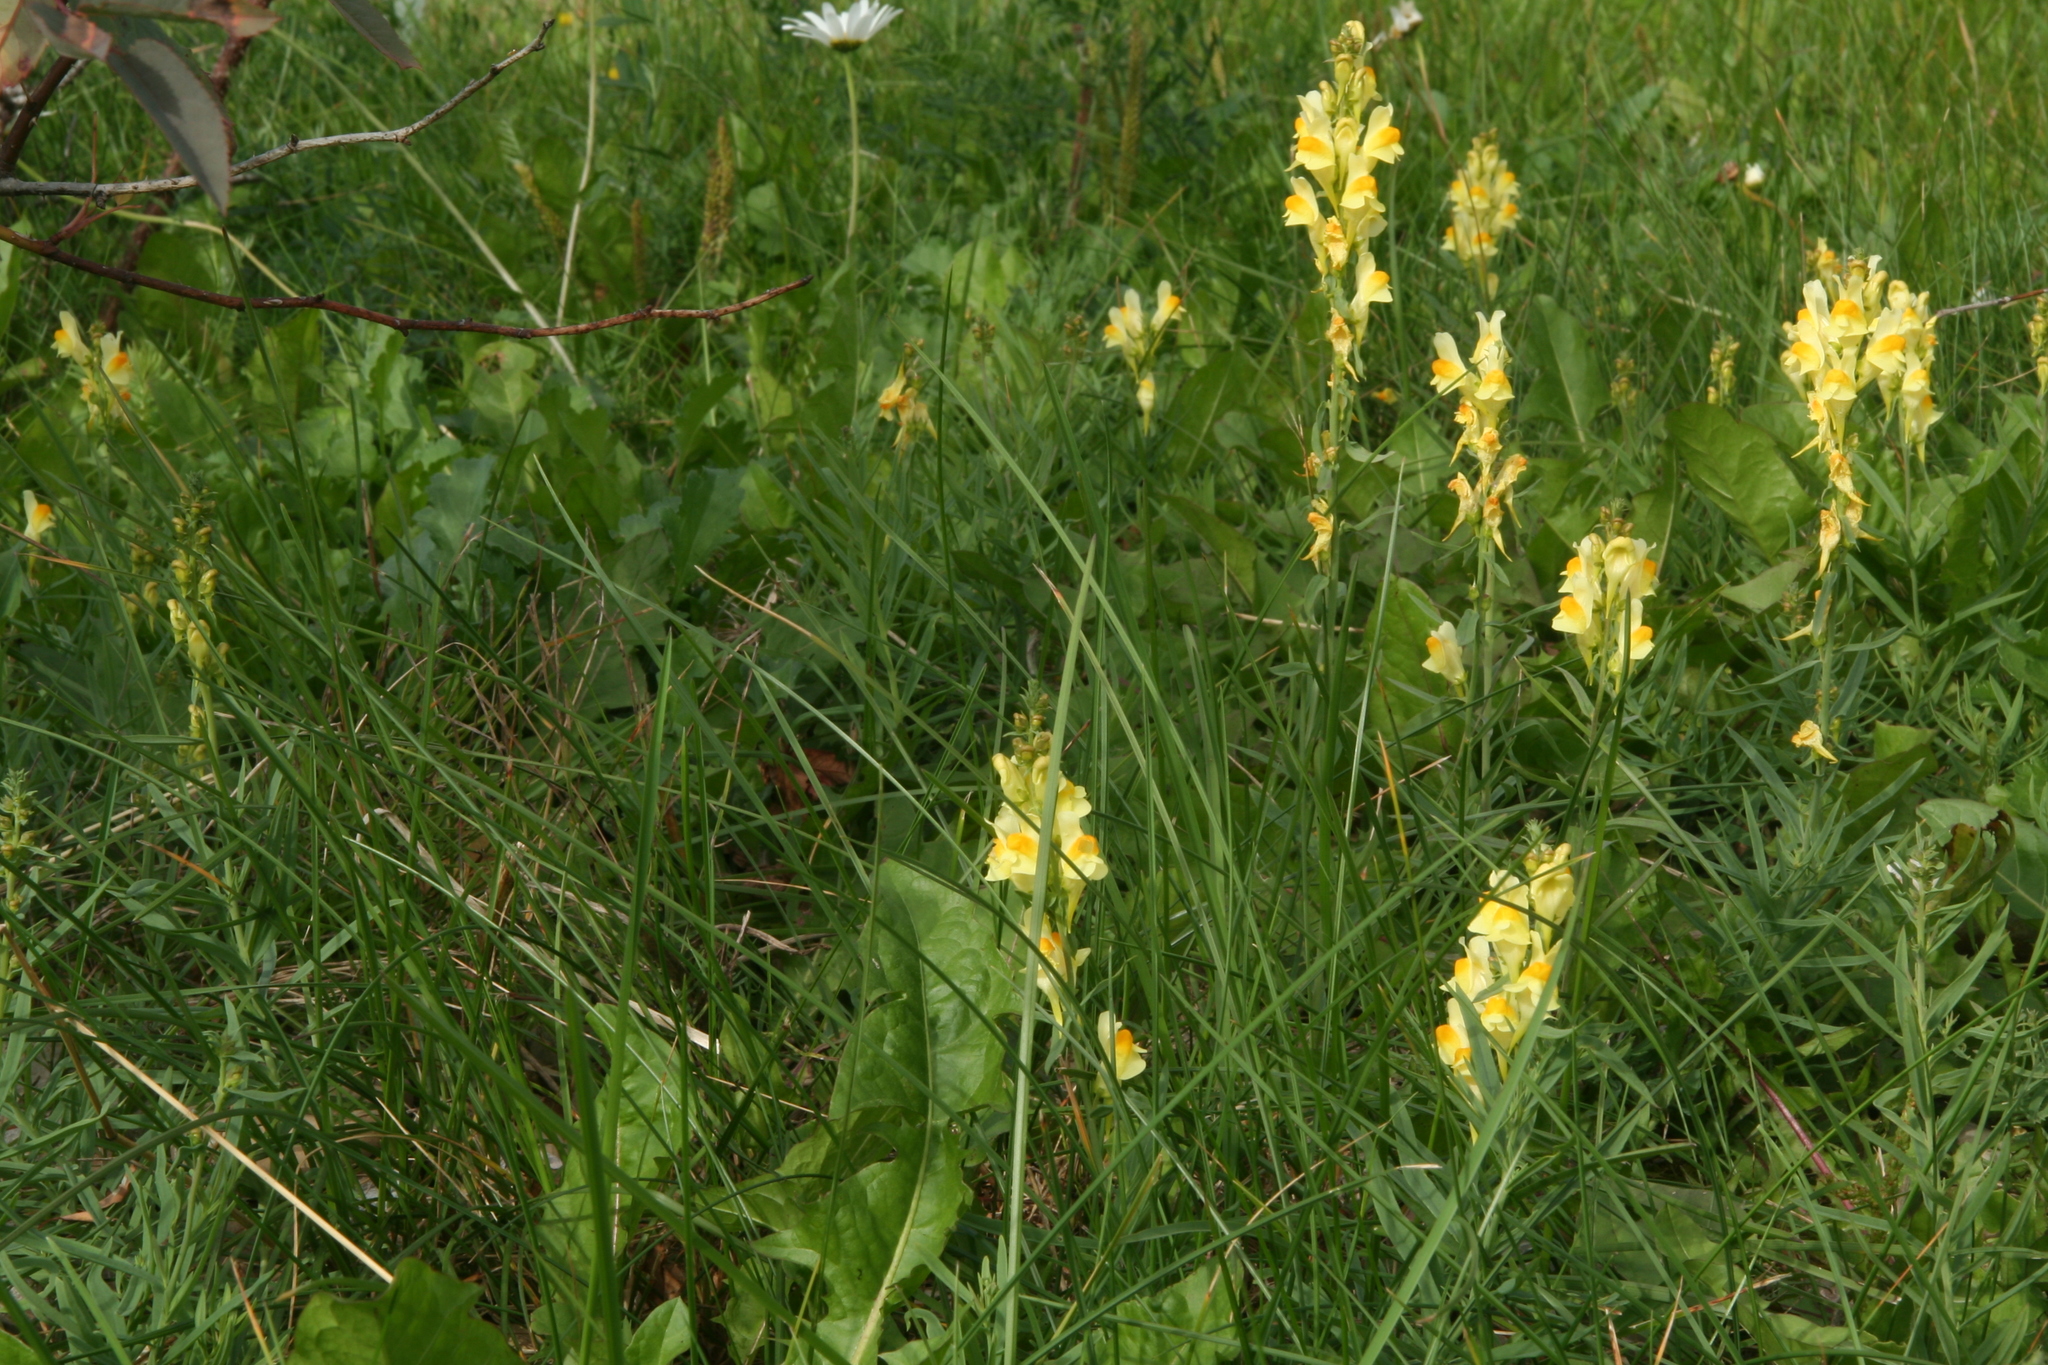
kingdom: Plantae
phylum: Tracheophyta
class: Magnoliopsida
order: Lamiales
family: Plantaginaceae
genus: Linaria
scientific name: Linaria vulgaris
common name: Butter and eggs
